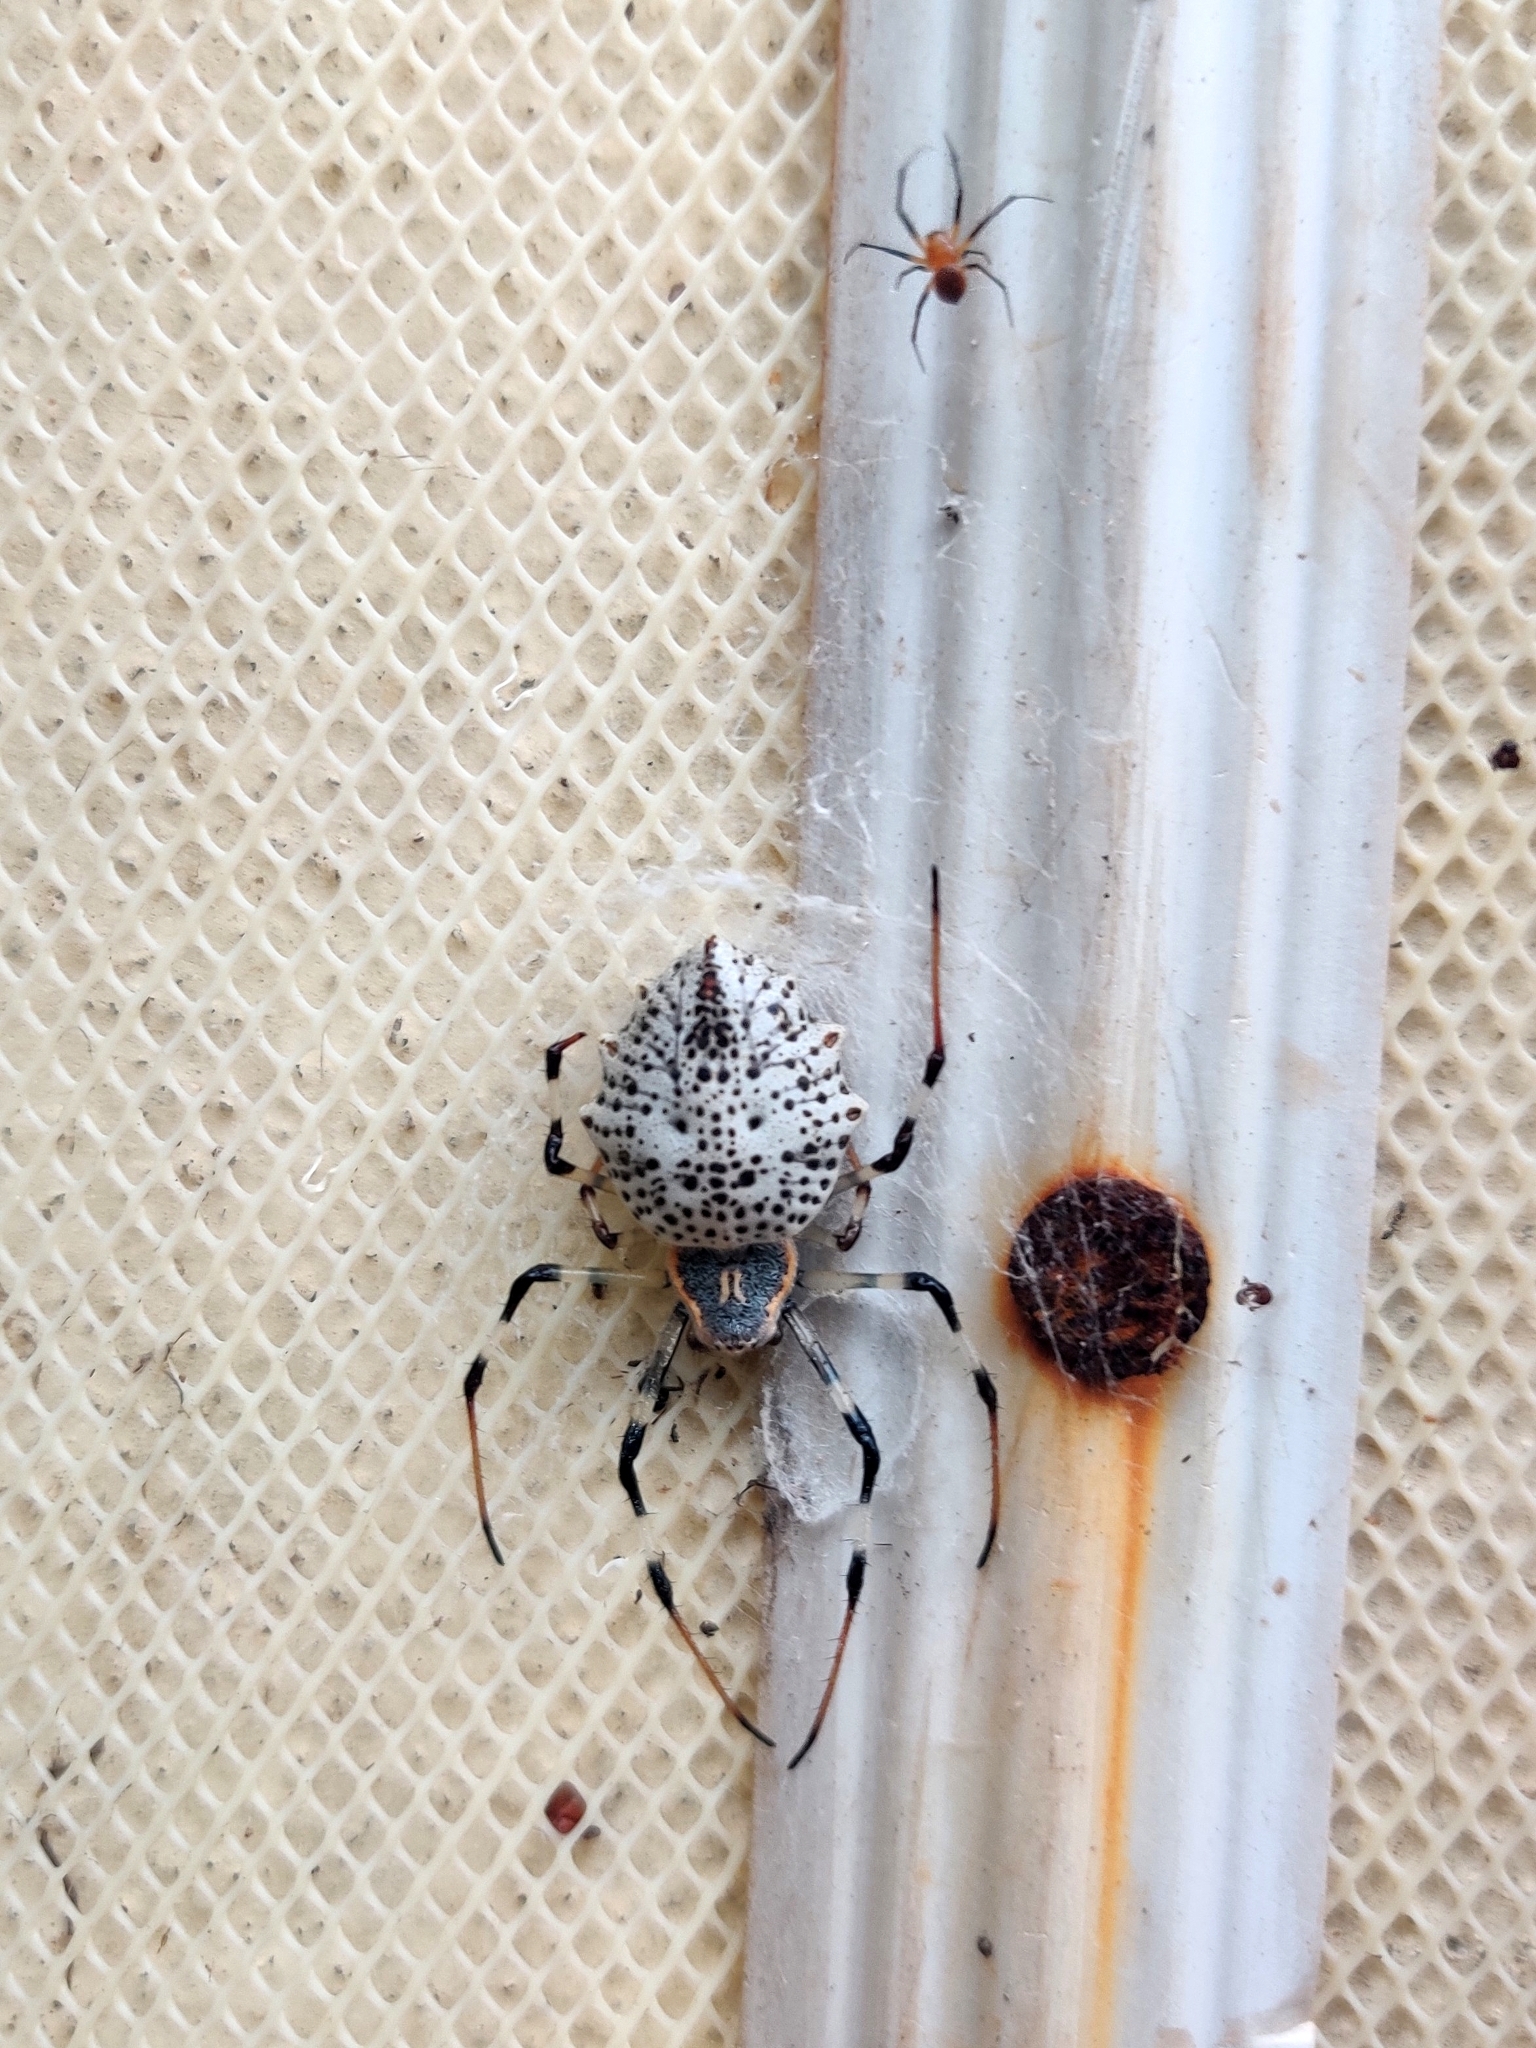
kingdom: Animalia
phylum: Arthropoda
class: Arachnida
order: Araneae
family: Araneidae
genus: Herennia
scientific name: Herennia multipuncta
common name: Spotted coin spider
